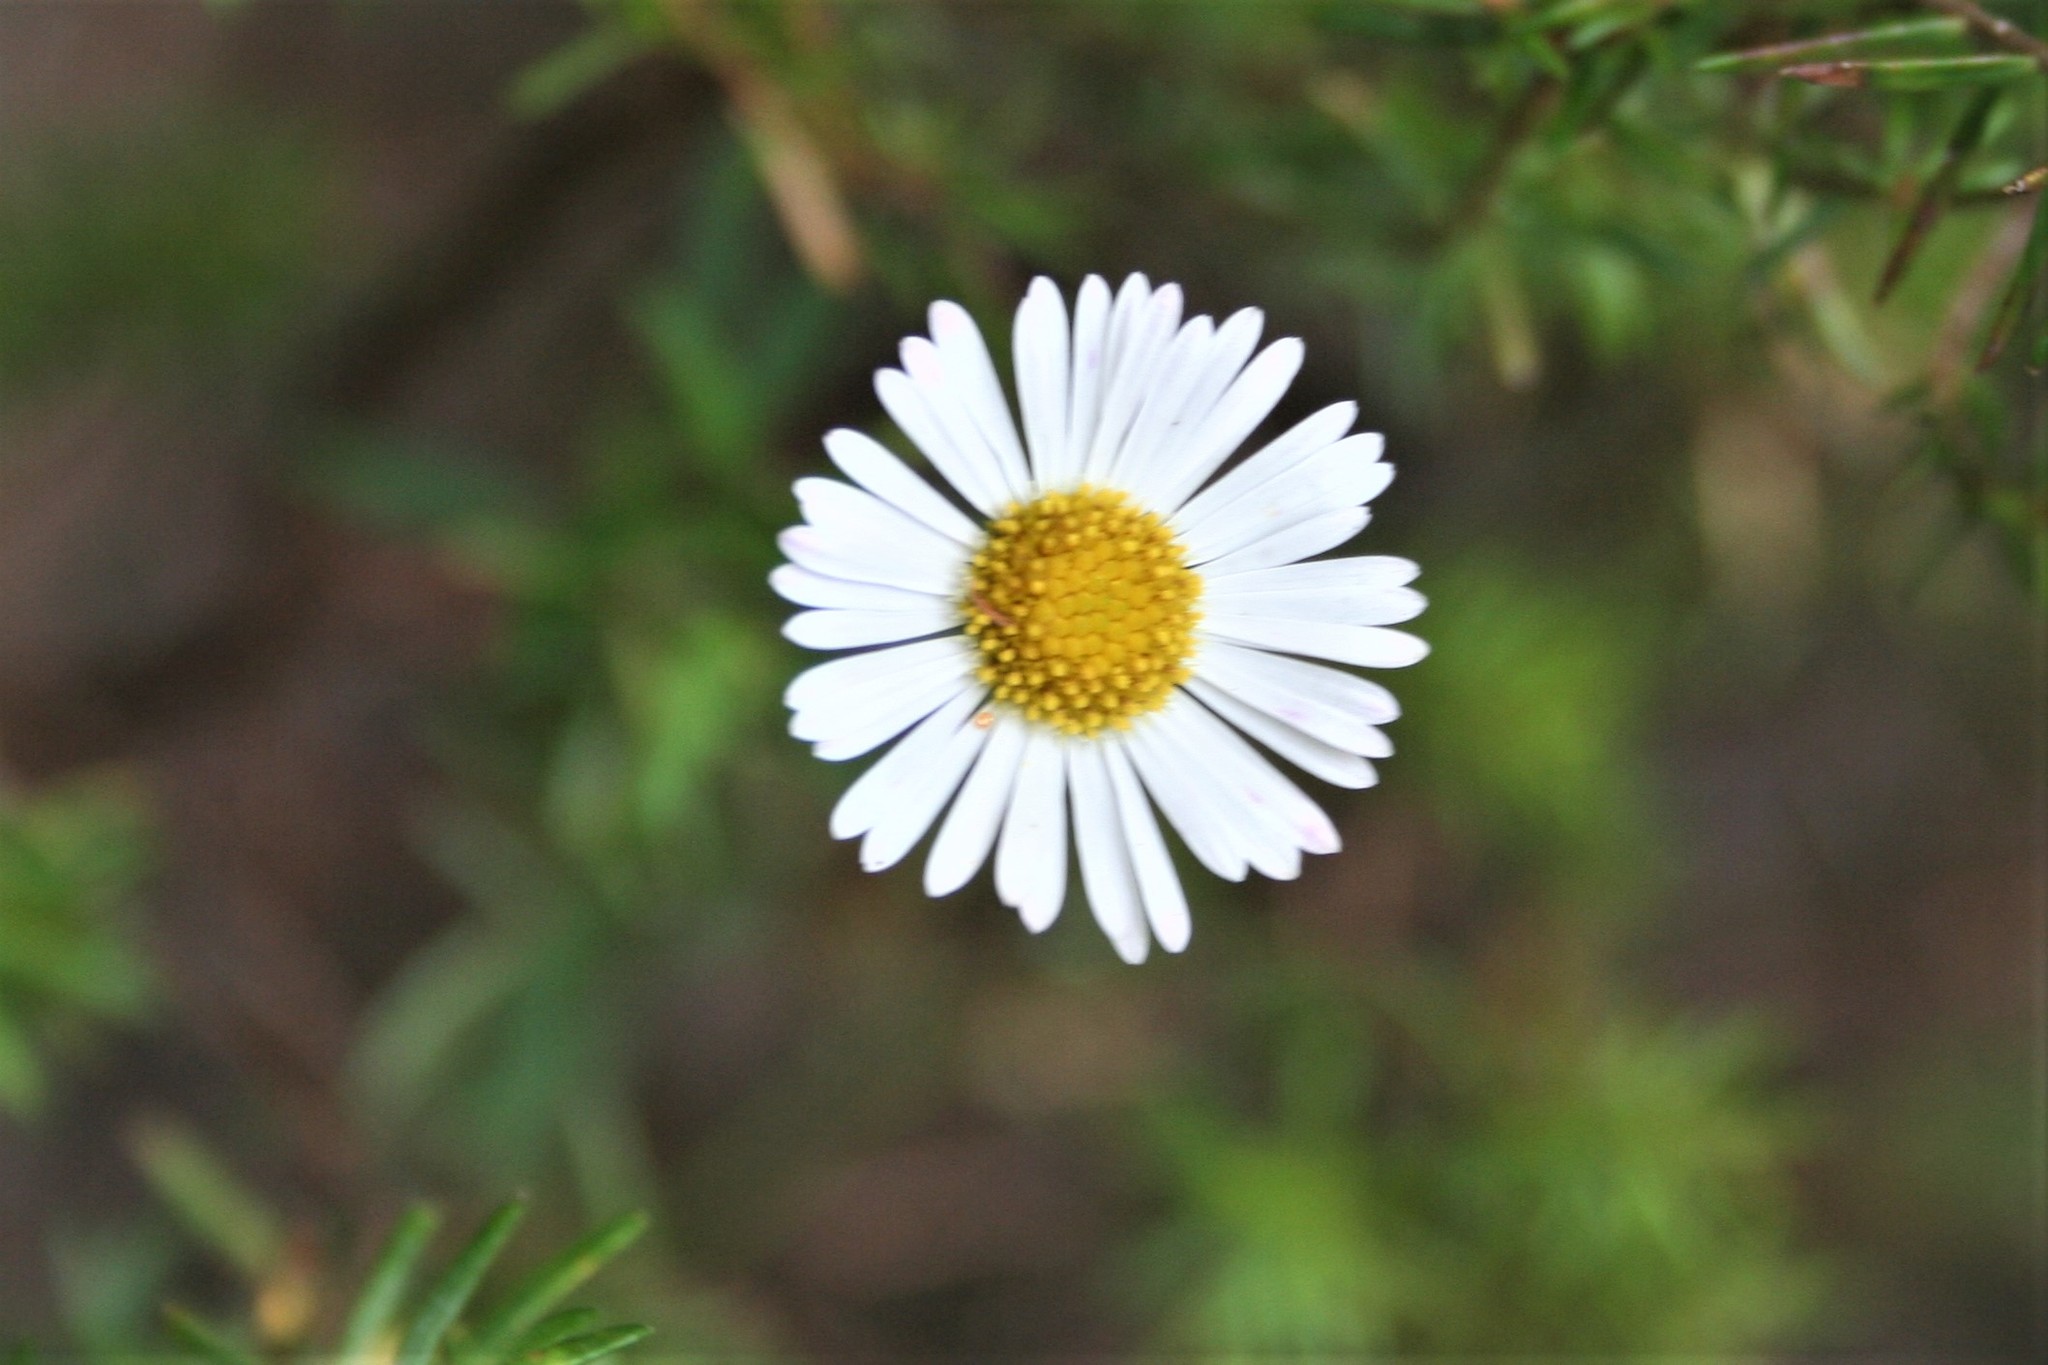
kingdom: Plantae
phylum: Tracheophyta
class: Magnoliopsida
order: Asterales
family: Asteraceae
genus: Erigeron
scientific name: Erigeron karvinskianus
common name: Mexican fleabane
